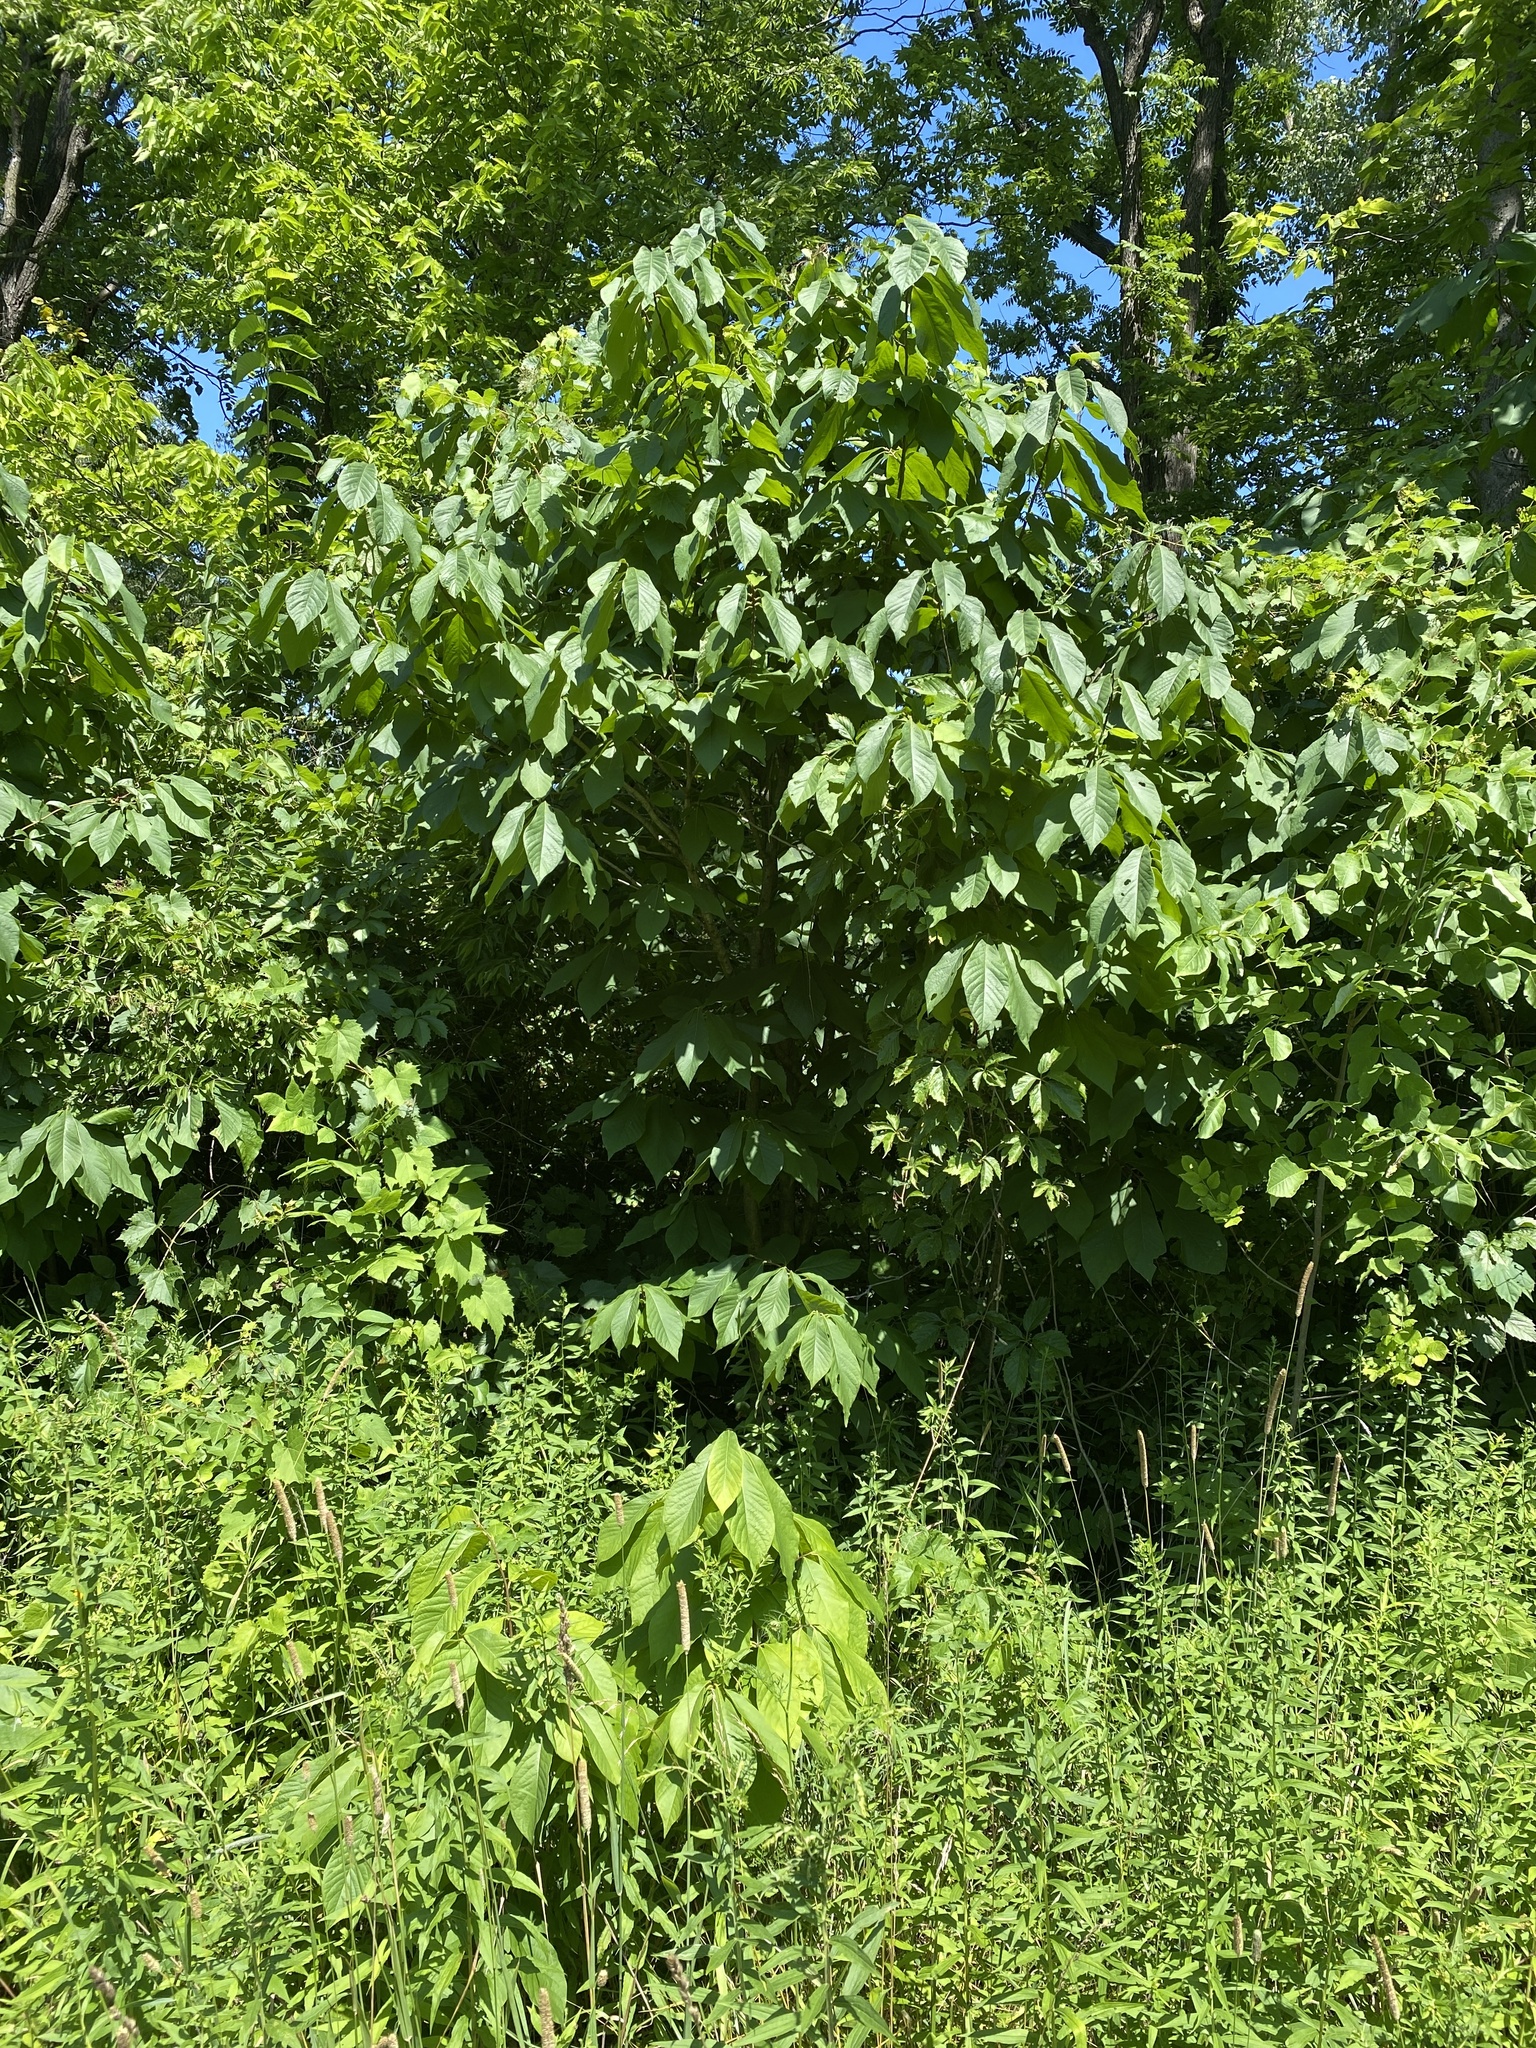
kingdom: Plantae
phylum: Tracheophyta
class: Magnoliopsida
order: Magnoliales
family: Annonaceae
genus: Asimina
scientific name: Asimina triloba
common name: Dog-banana
